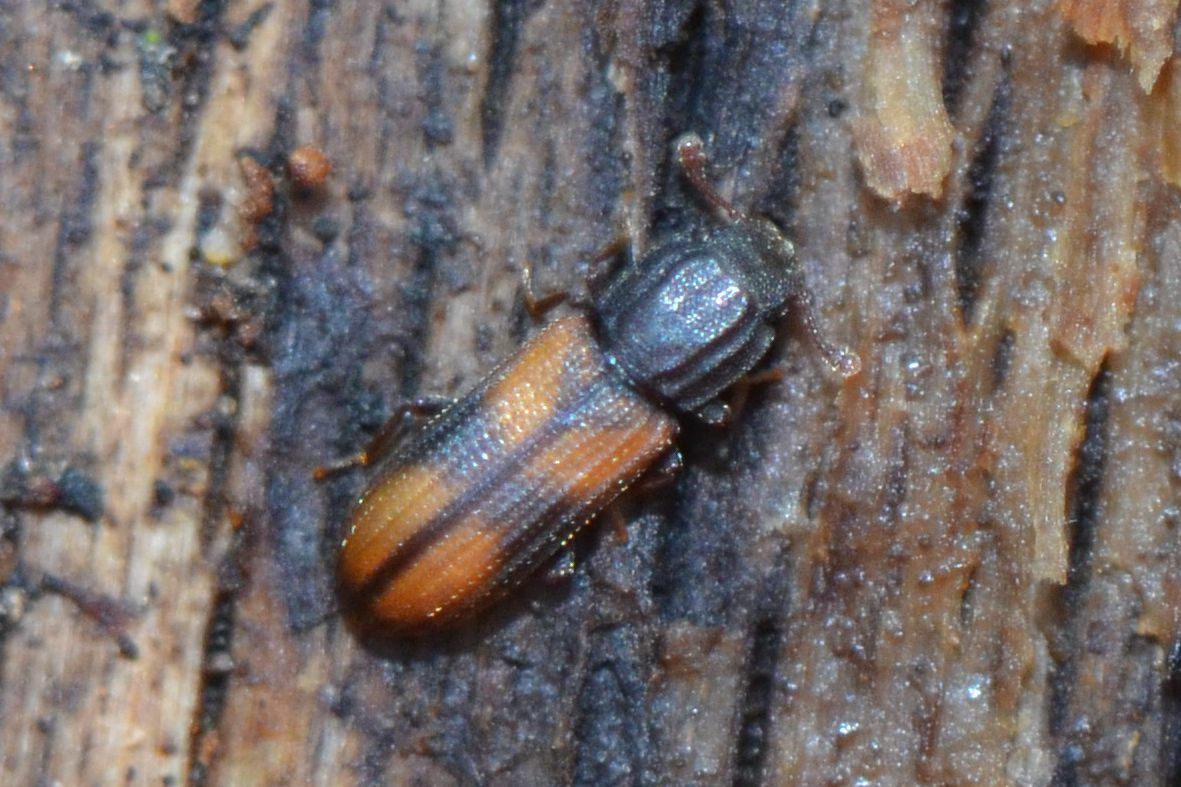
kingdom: Animalia
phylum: Arthropoda
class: Insecta
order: Coleoptera
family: Zopheridae
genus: Bitoma
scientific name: Bitoma crenata
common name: Bark beetle
